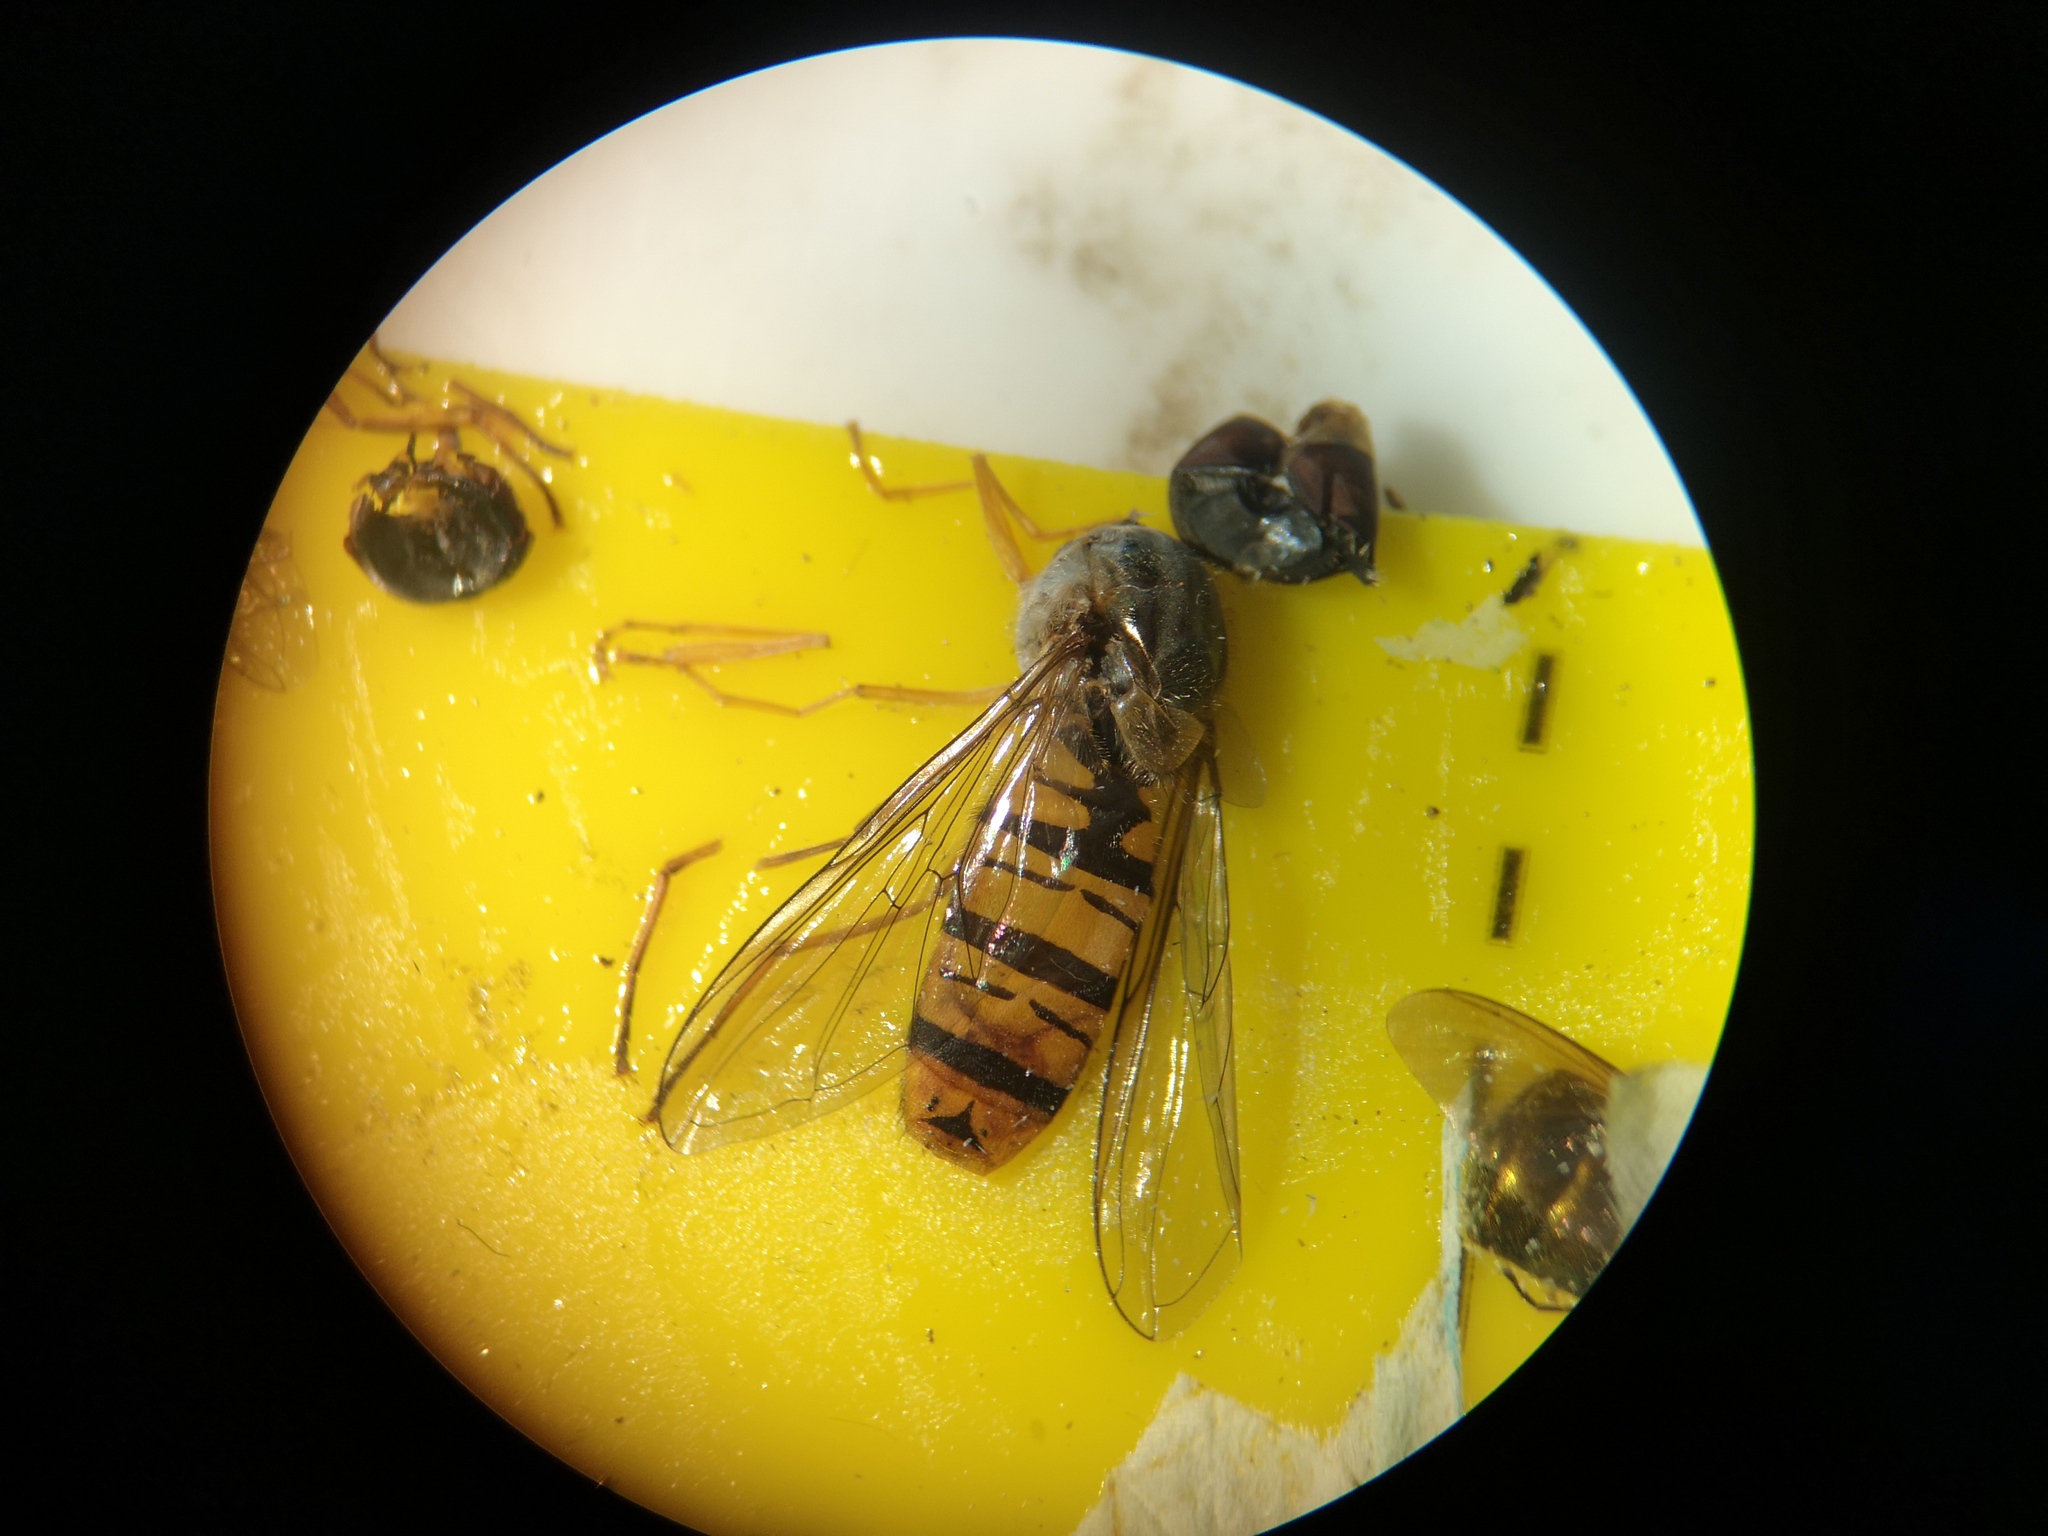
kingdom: Animalia
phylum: Arthropoda
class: Insecta
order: Diptera
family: Syrphidae
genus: Episyrphus
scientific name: Episyrphus balteatus
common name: Marmalade hoverfly
